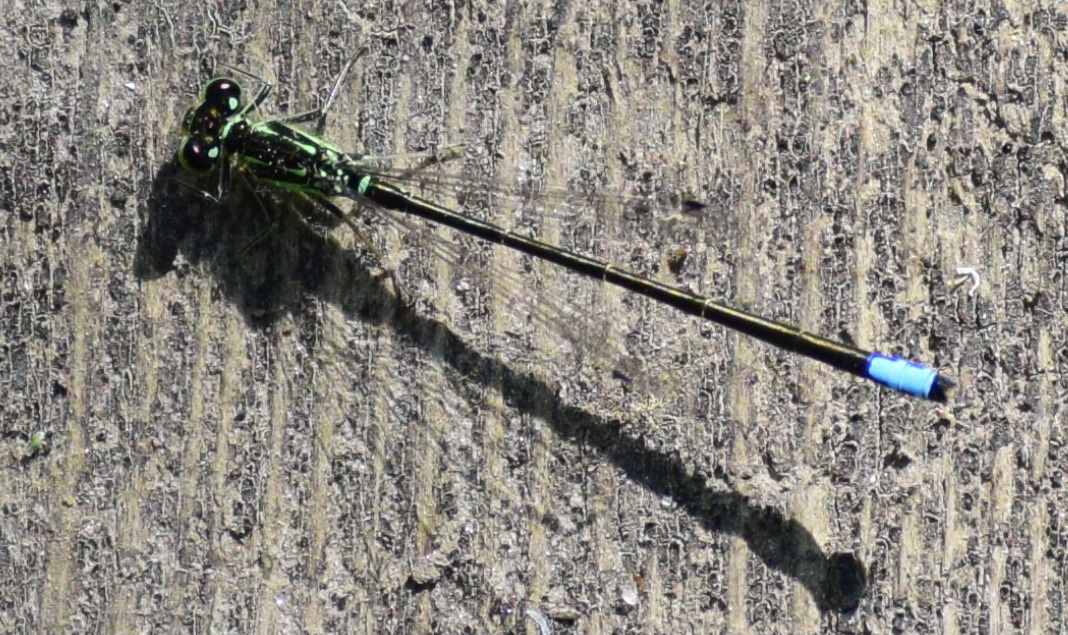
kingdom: Animalia
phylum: Arthropoda
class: Insecta
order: Odonata
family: Coenagrionidae
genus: Ischnura
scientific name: Ischnura verticalis
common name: Eastern forktail
